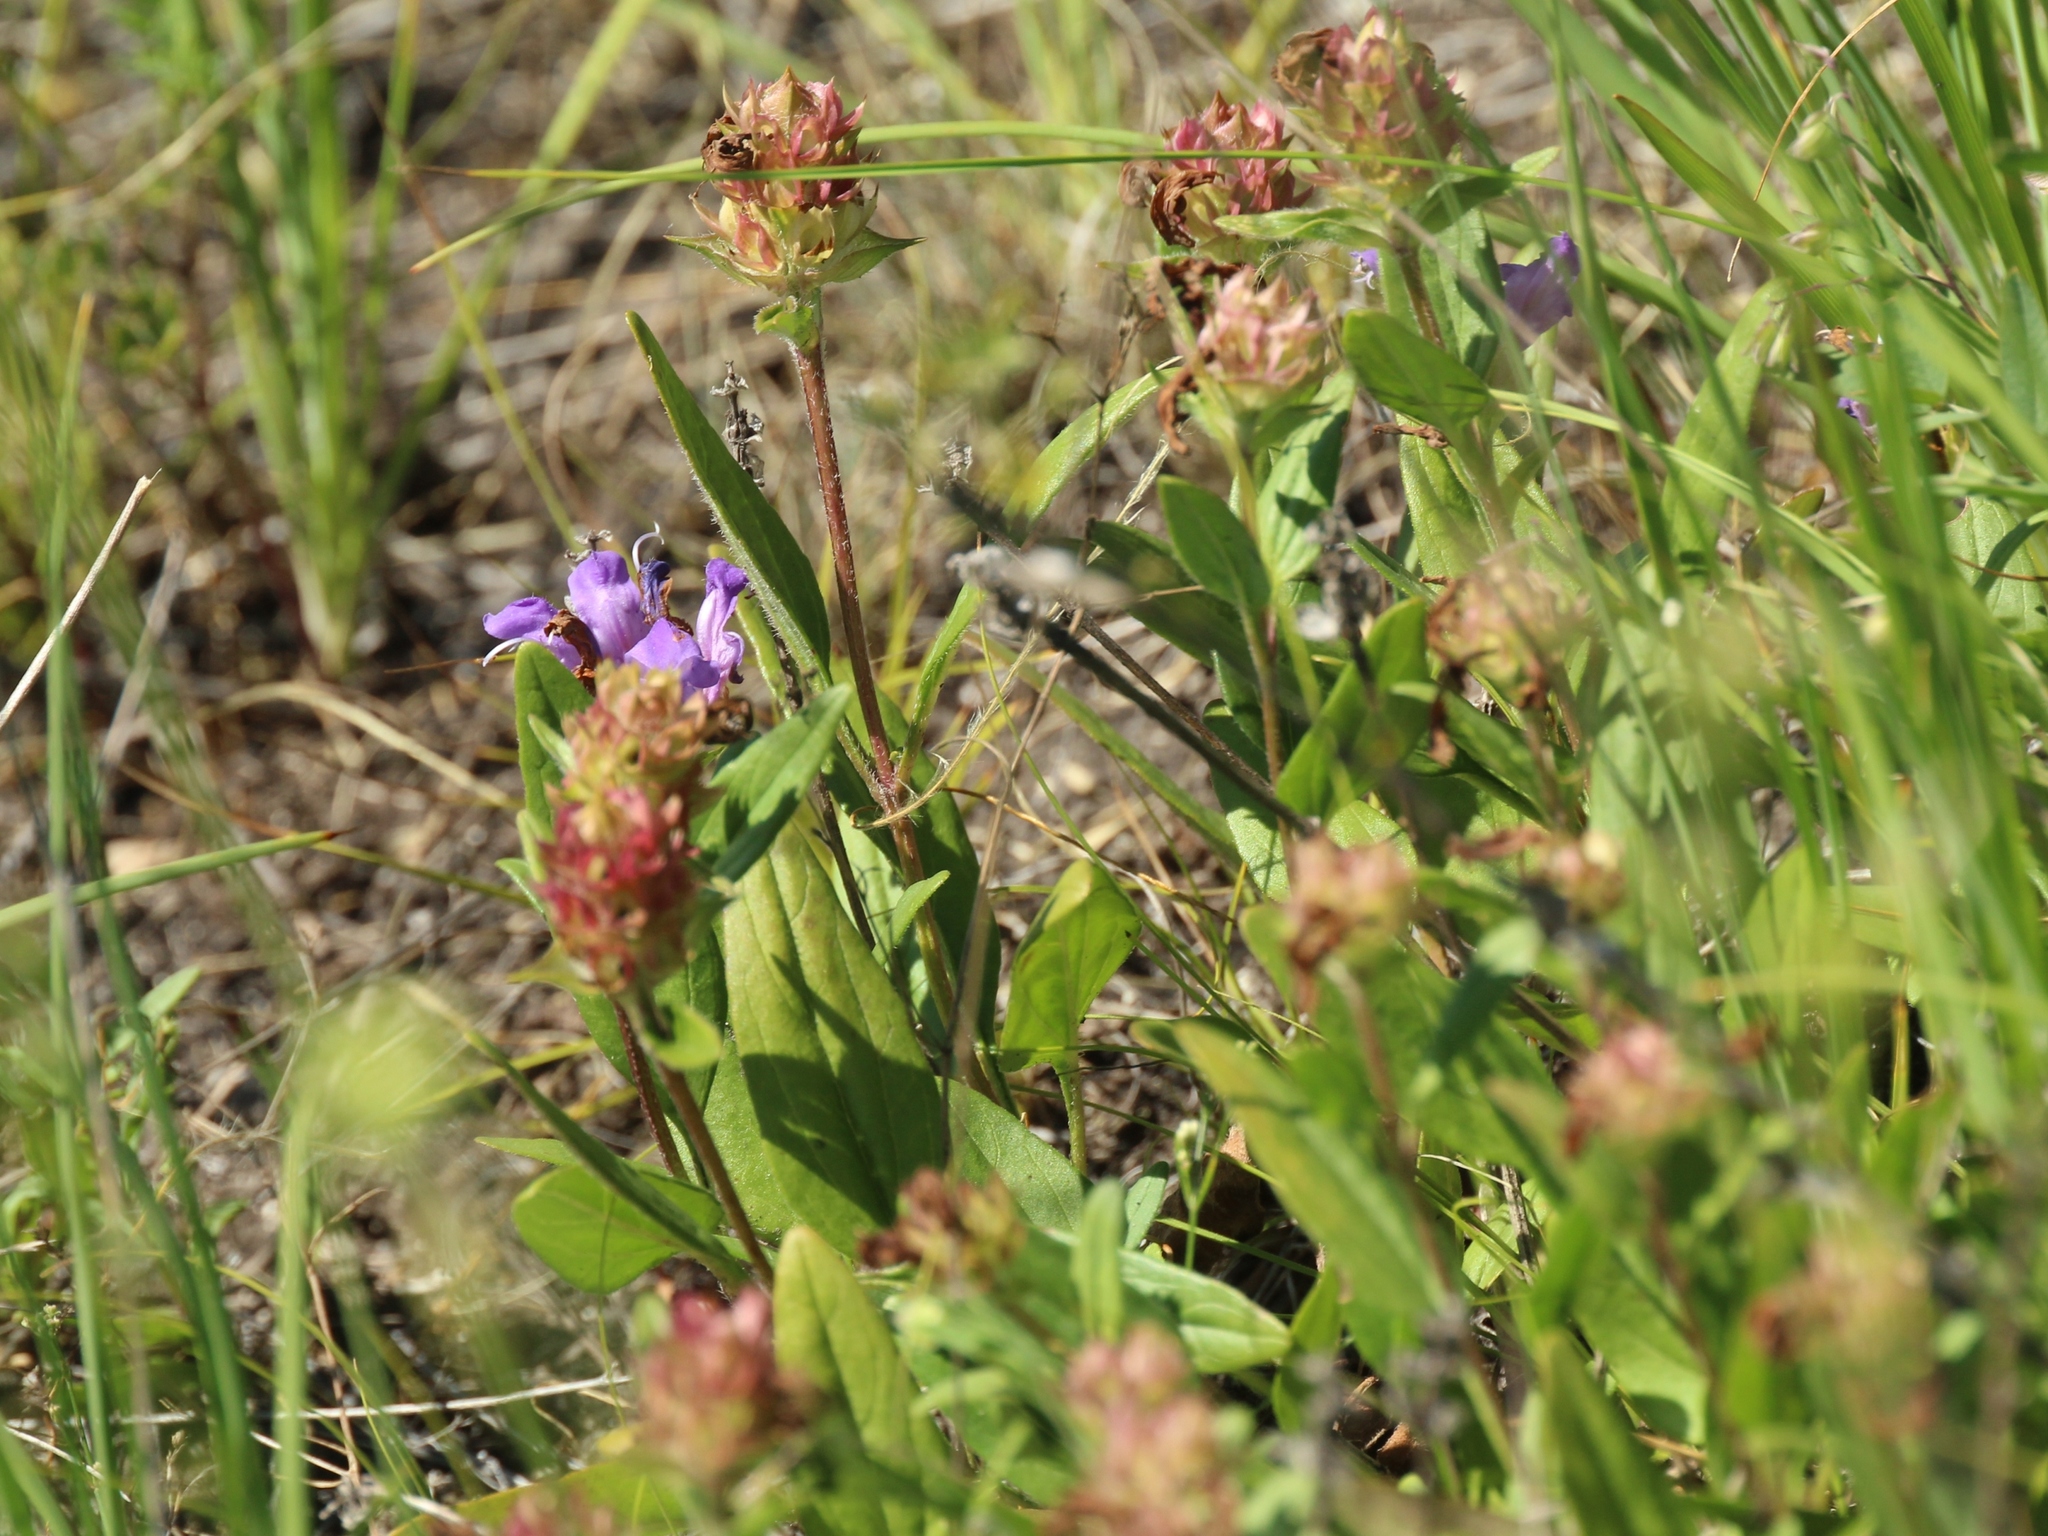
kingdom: Plantae
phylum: Tracheophyta
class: Magnoliopsida
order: Lamiales
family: Lamiaceae
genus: Prunella
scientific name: Prunella grandiflora
